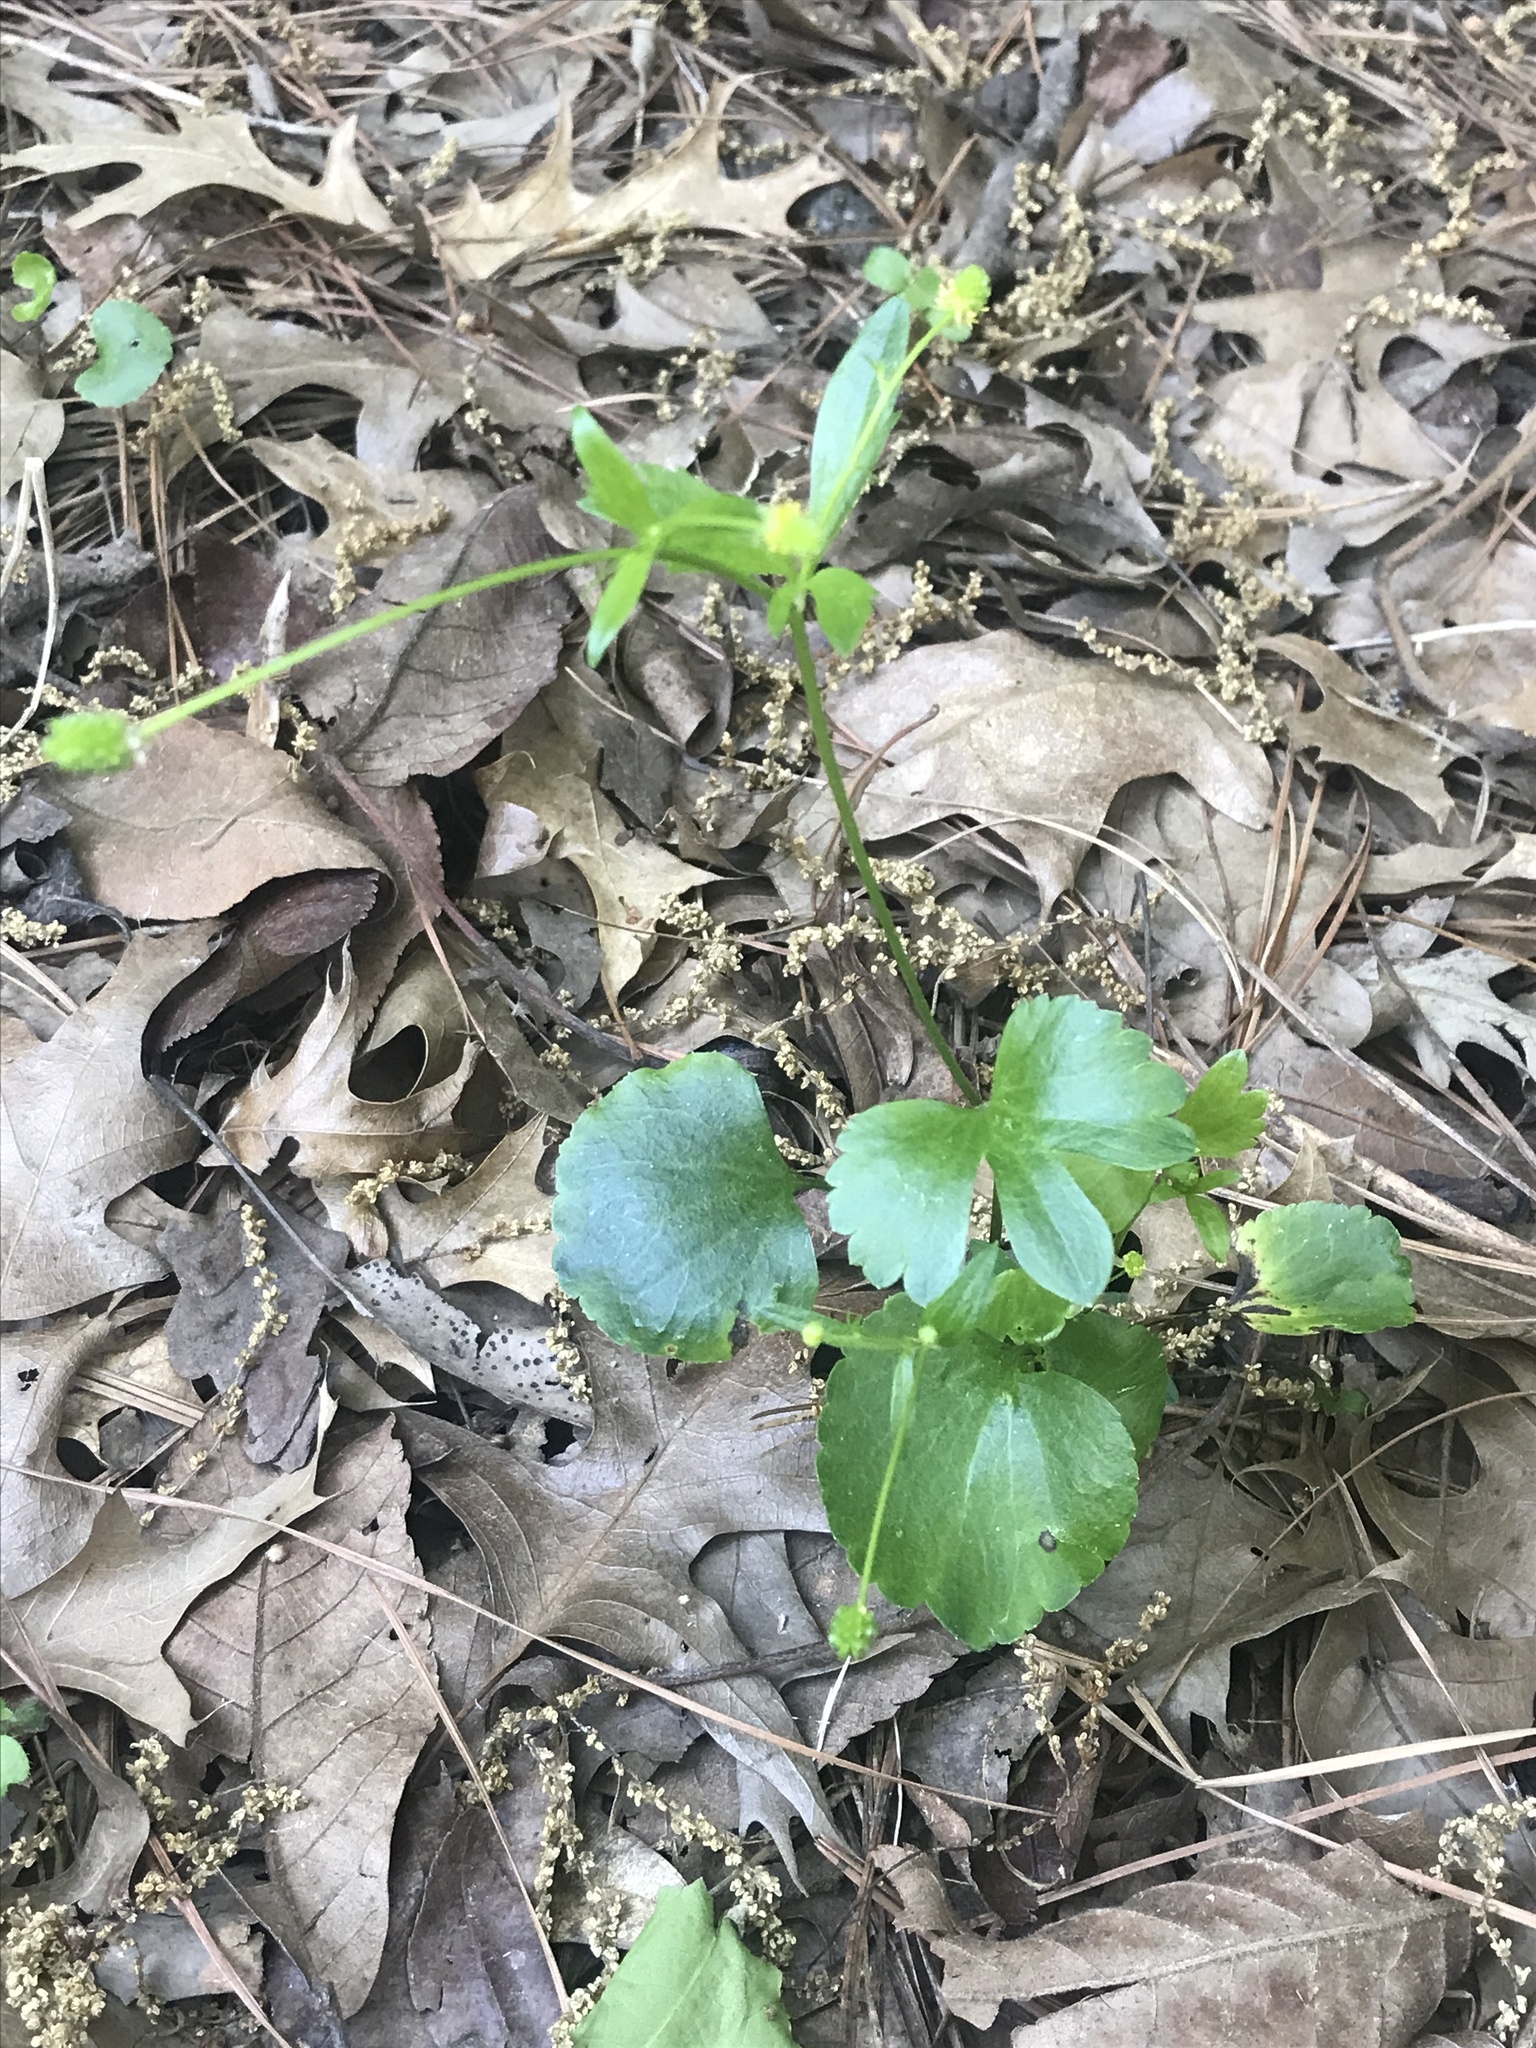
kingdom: Plantae
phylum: Tracheophyta
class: Magnoliopsida
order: Ranunculales
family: Ranunculaceae
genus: Ranunculus
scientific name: Ranunculus micranthus
